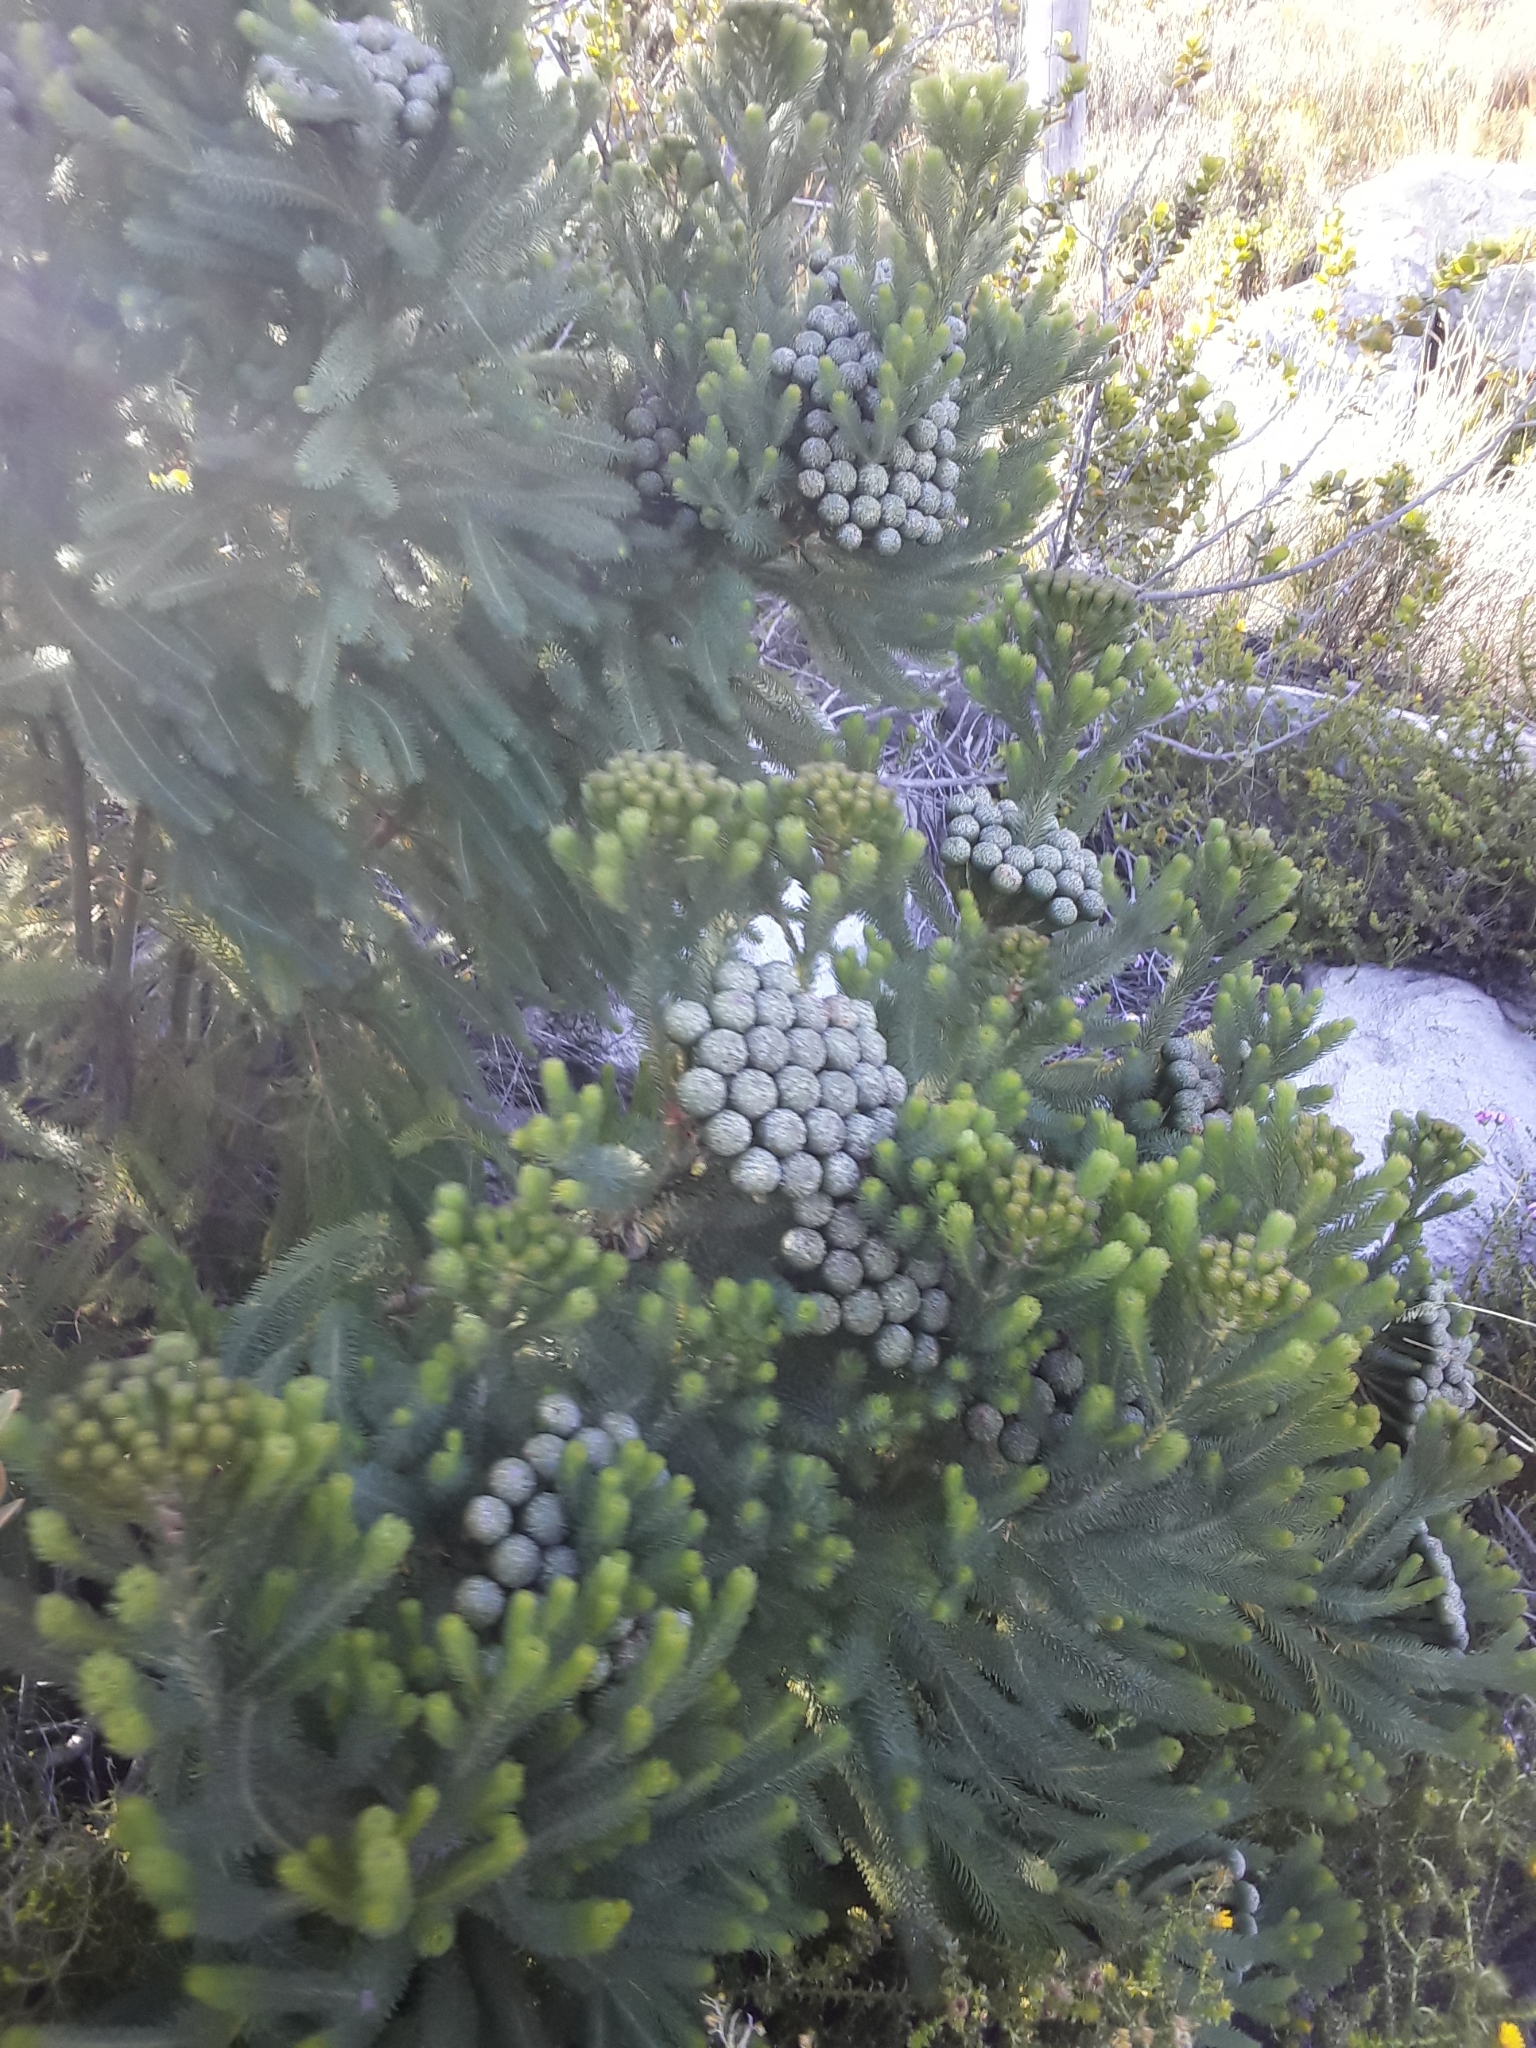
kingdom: Plantae
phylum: Tracheophyta
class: Magnoliopsida
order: Bruniales
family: Bruniaceae
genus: Berzelia
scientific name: Berzelia albiflora
